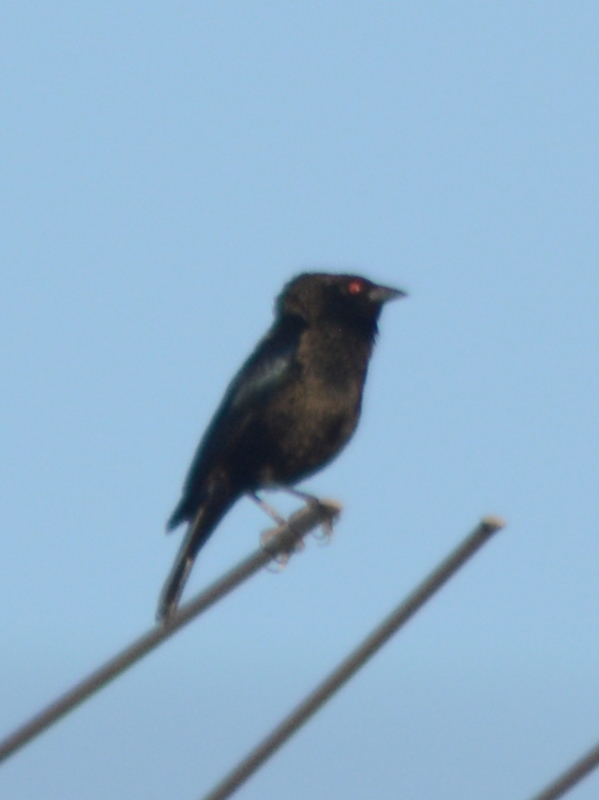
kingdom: Animalia
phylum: Chordata
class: Aves
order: Passeriformes
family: Icteridae
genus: Molothrus
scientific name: Molothrus aeneus
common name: Bronzed cowbird
